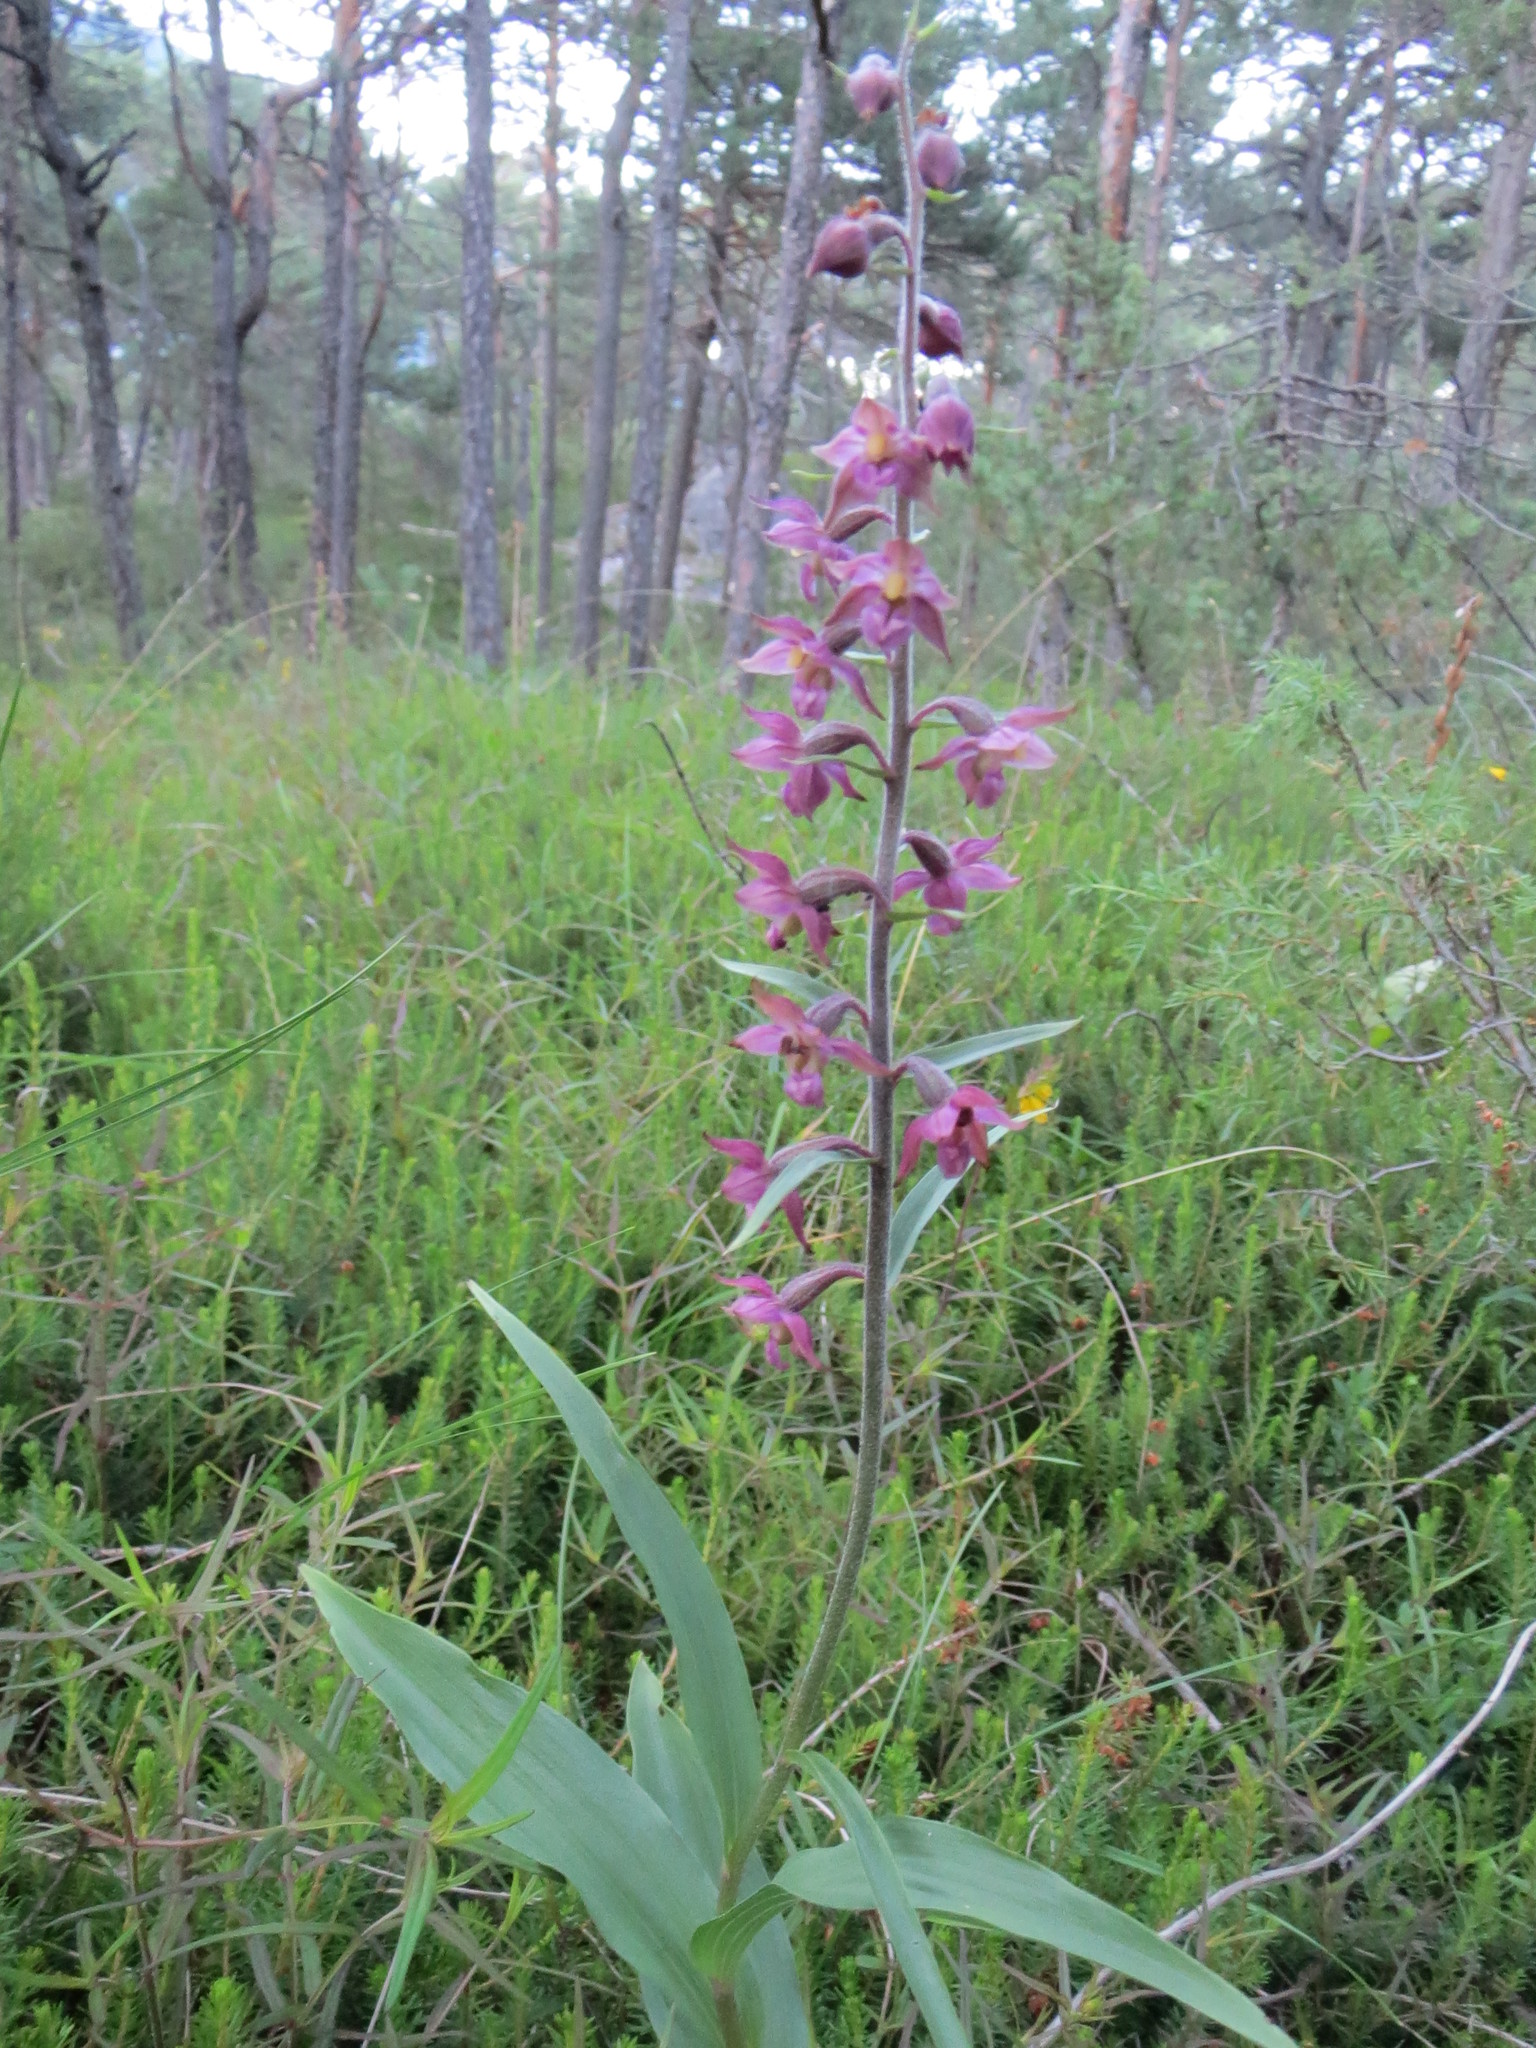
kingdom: Plantae
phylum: Tracheophyta
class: Liliopsida
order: Asparagales
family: Orchidaceae
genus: Epipactis
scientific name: Epipactis atrorubens
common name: Dark-red helleborine
